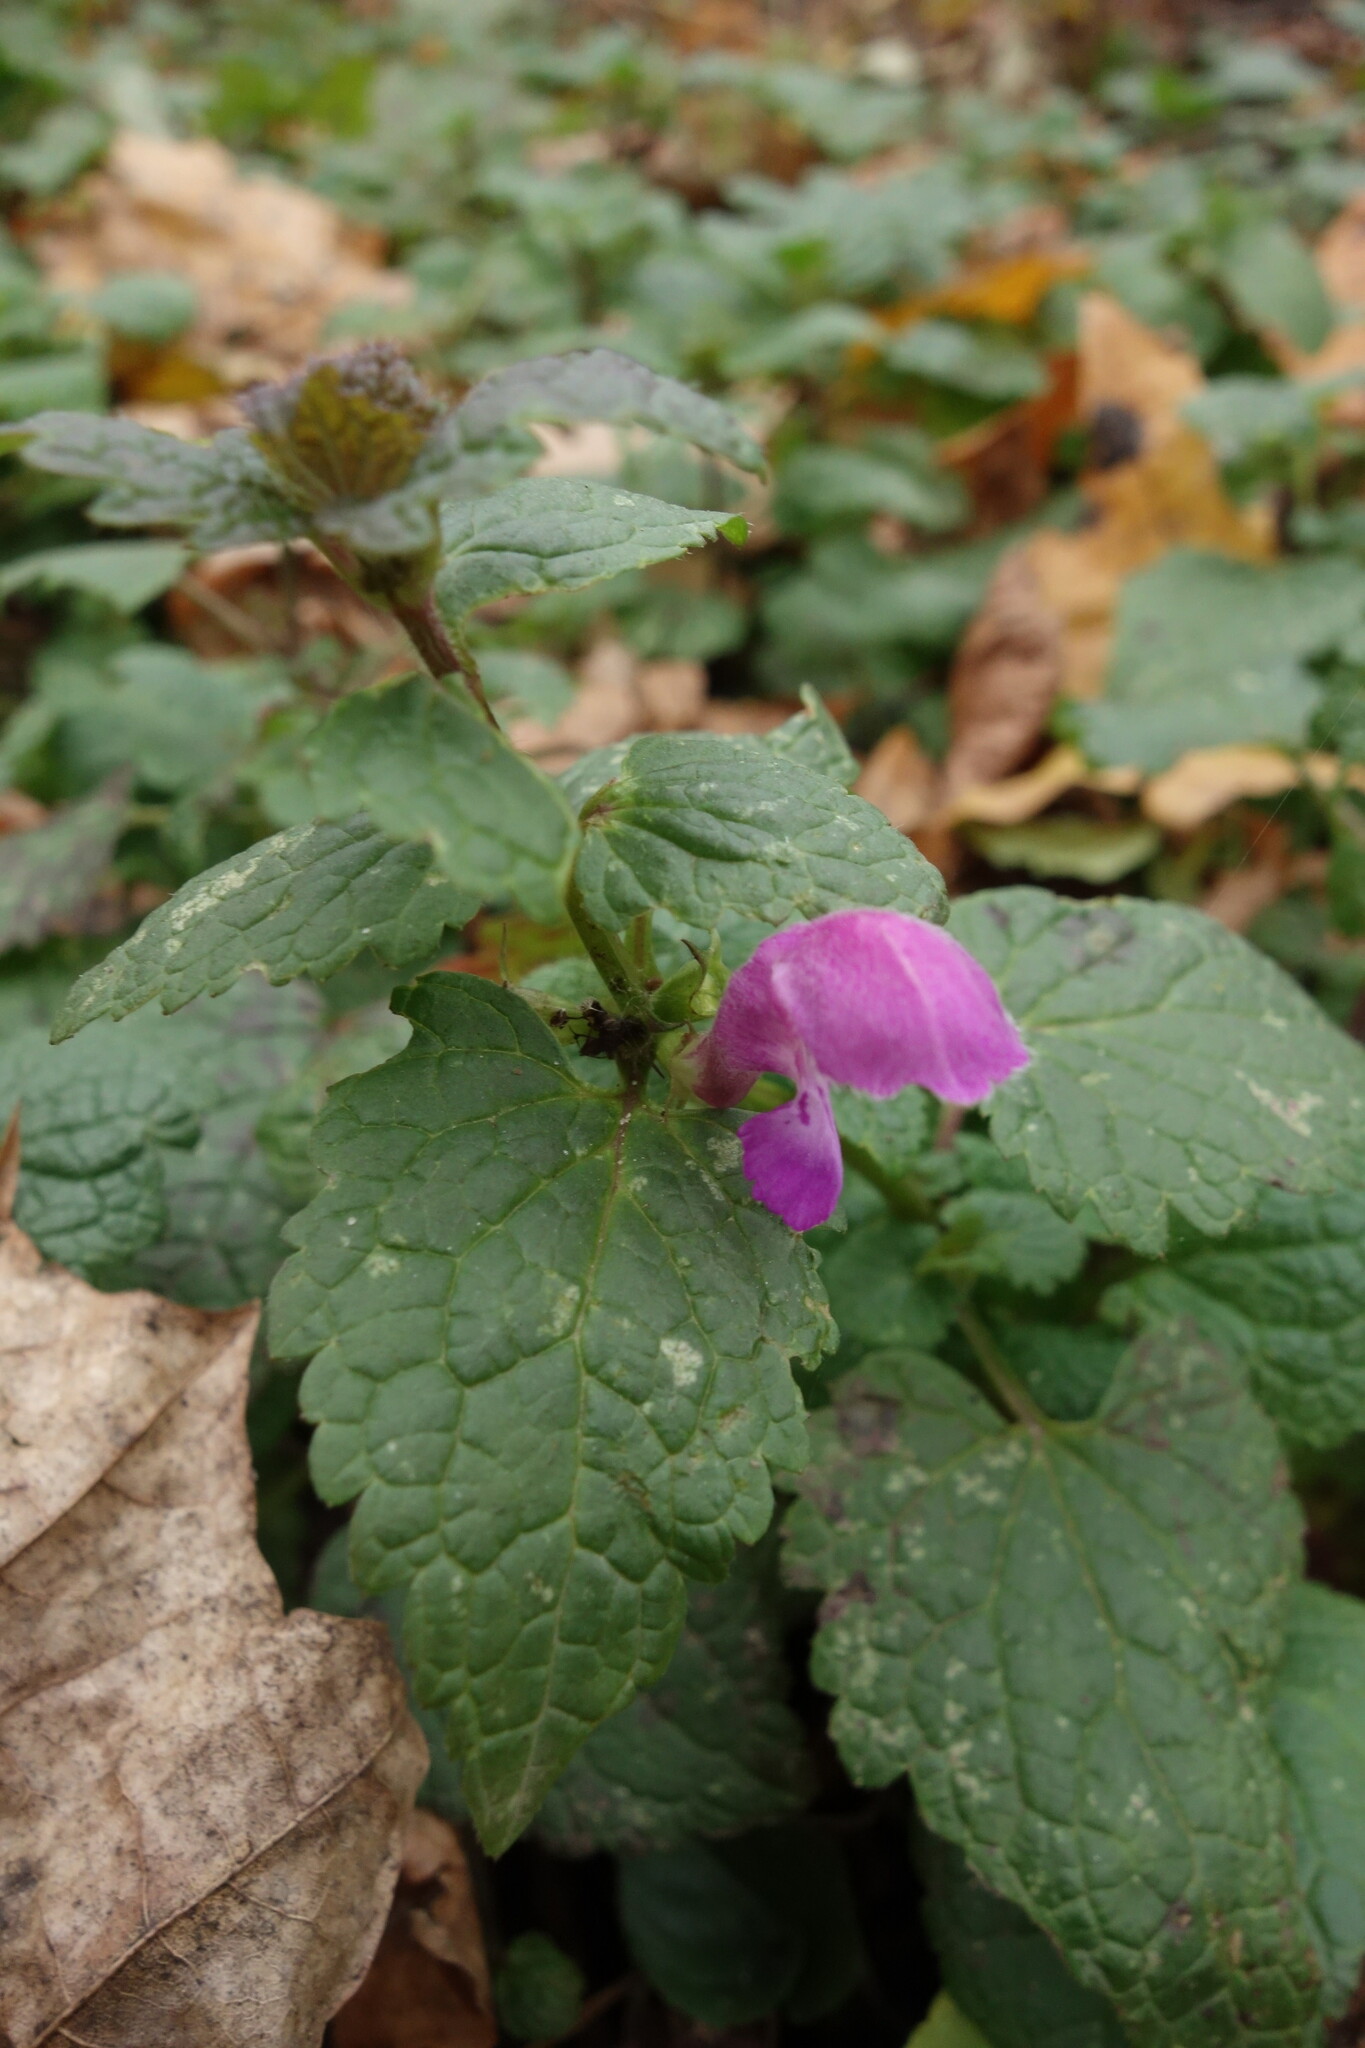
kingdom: Plantae
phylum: Tracheophyta
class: Magnoliopsida
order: Lamiales
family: Lamiaceae
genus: Lamium
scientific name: Lamium maculatum
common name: Spotted dead-nettle
